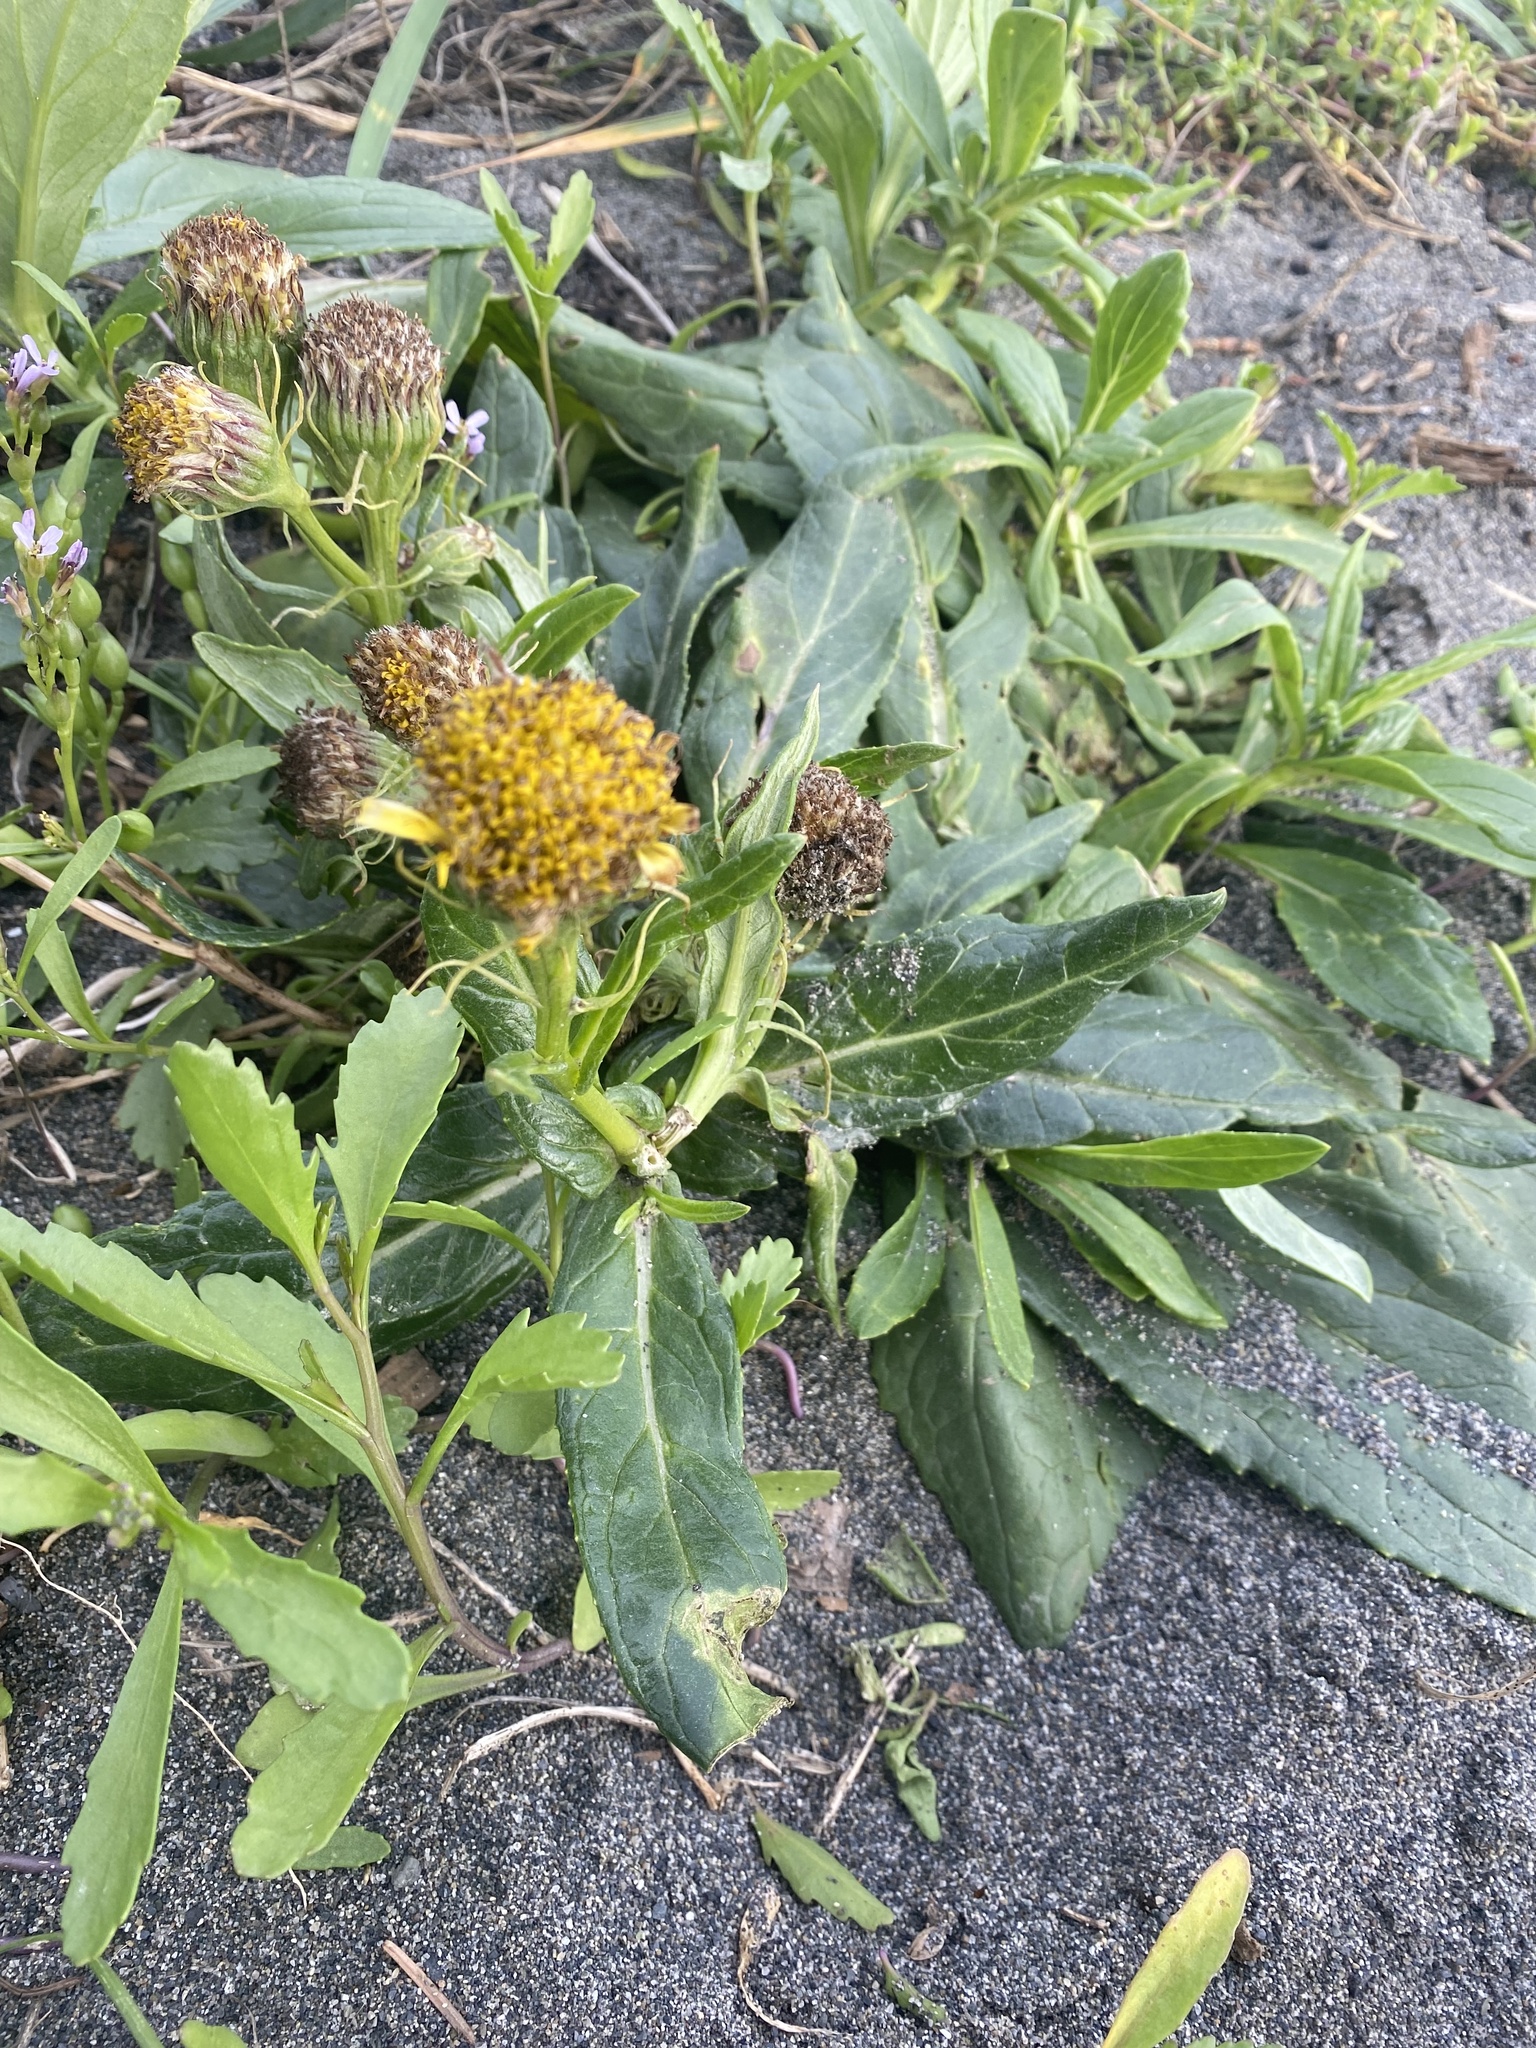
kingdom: Plantae
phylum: Tracheophyta
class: Magnoliopsida
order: Asterales
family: Asteraceae
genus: Jacobaea
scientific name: Jacobaea pseudoarnica
